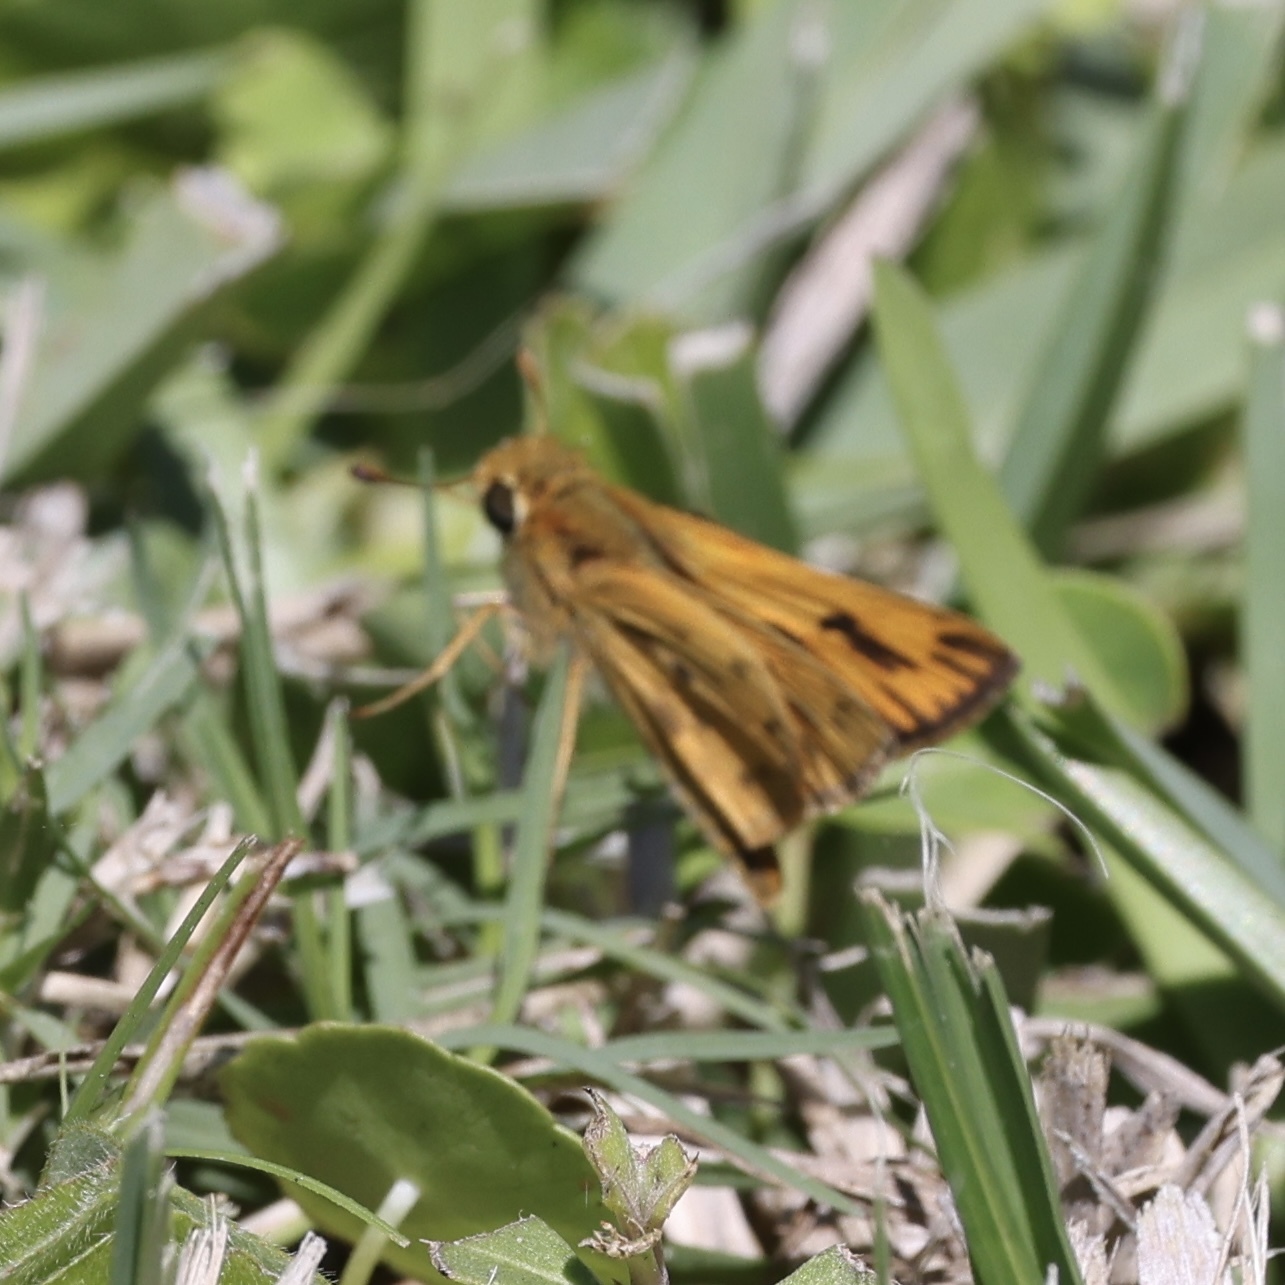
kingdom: Animalia
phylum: Arthropoda
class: Insecta
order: Lepidoptera
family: Hesperiidae
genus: Hylephila
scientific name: Hylephila phyleus
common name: Fiery skipper
